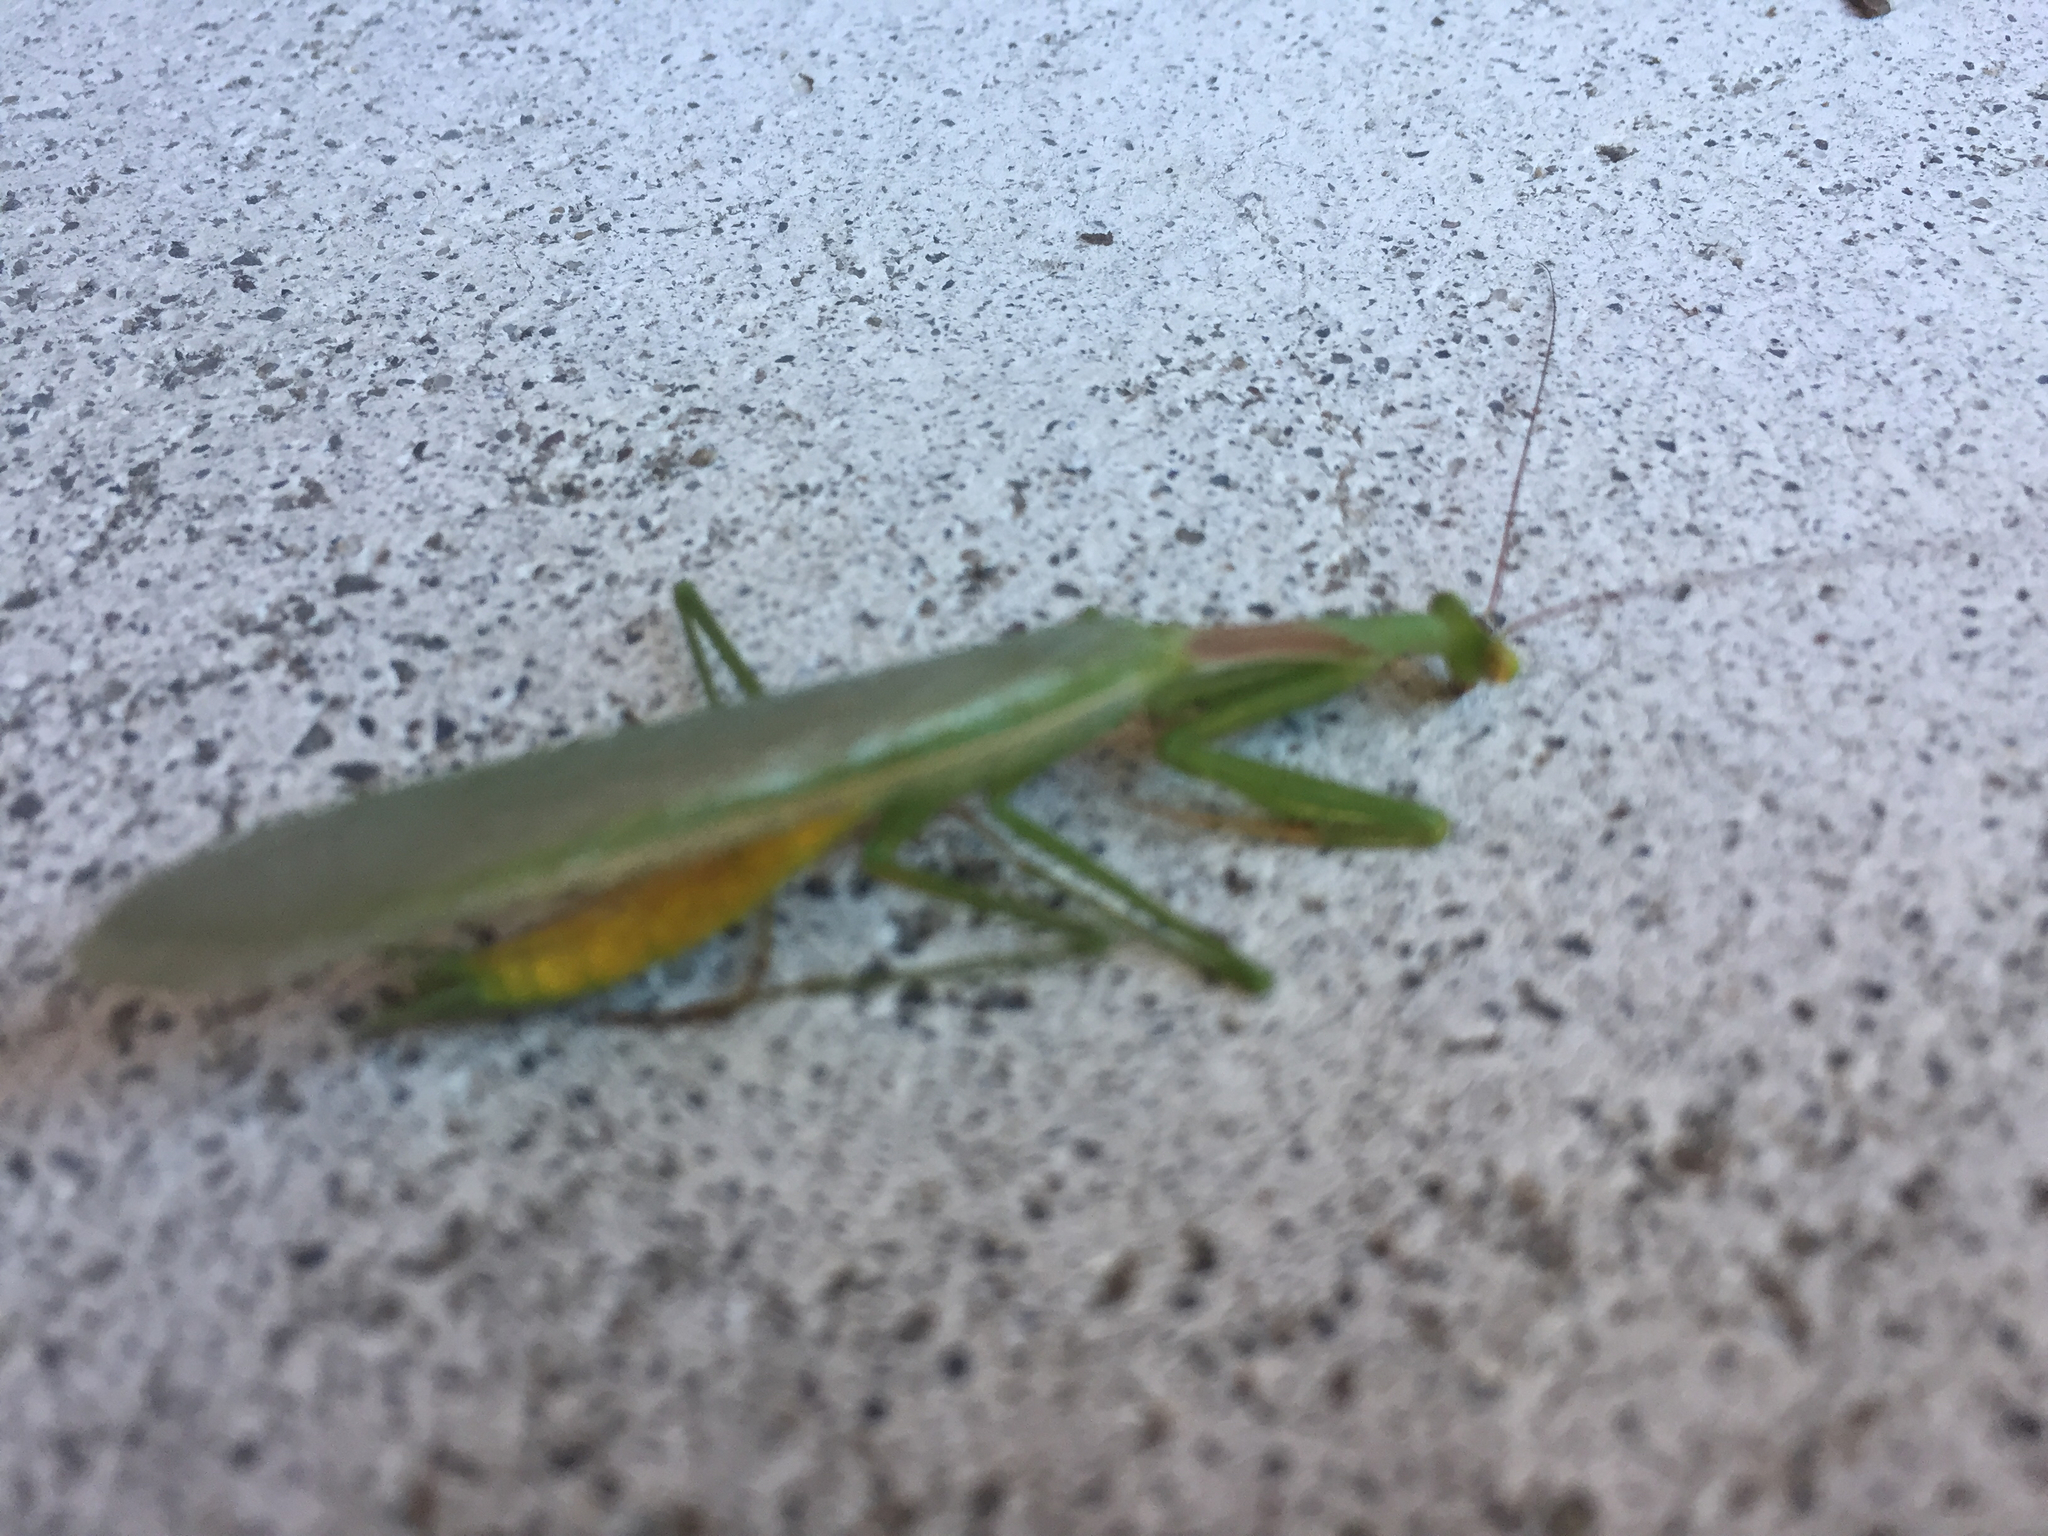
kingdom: Animalia
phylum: Arthropoda
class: Insecta
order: Mantodea
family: Miomantidae
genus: Miomantis
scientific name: Miomantis caffra
